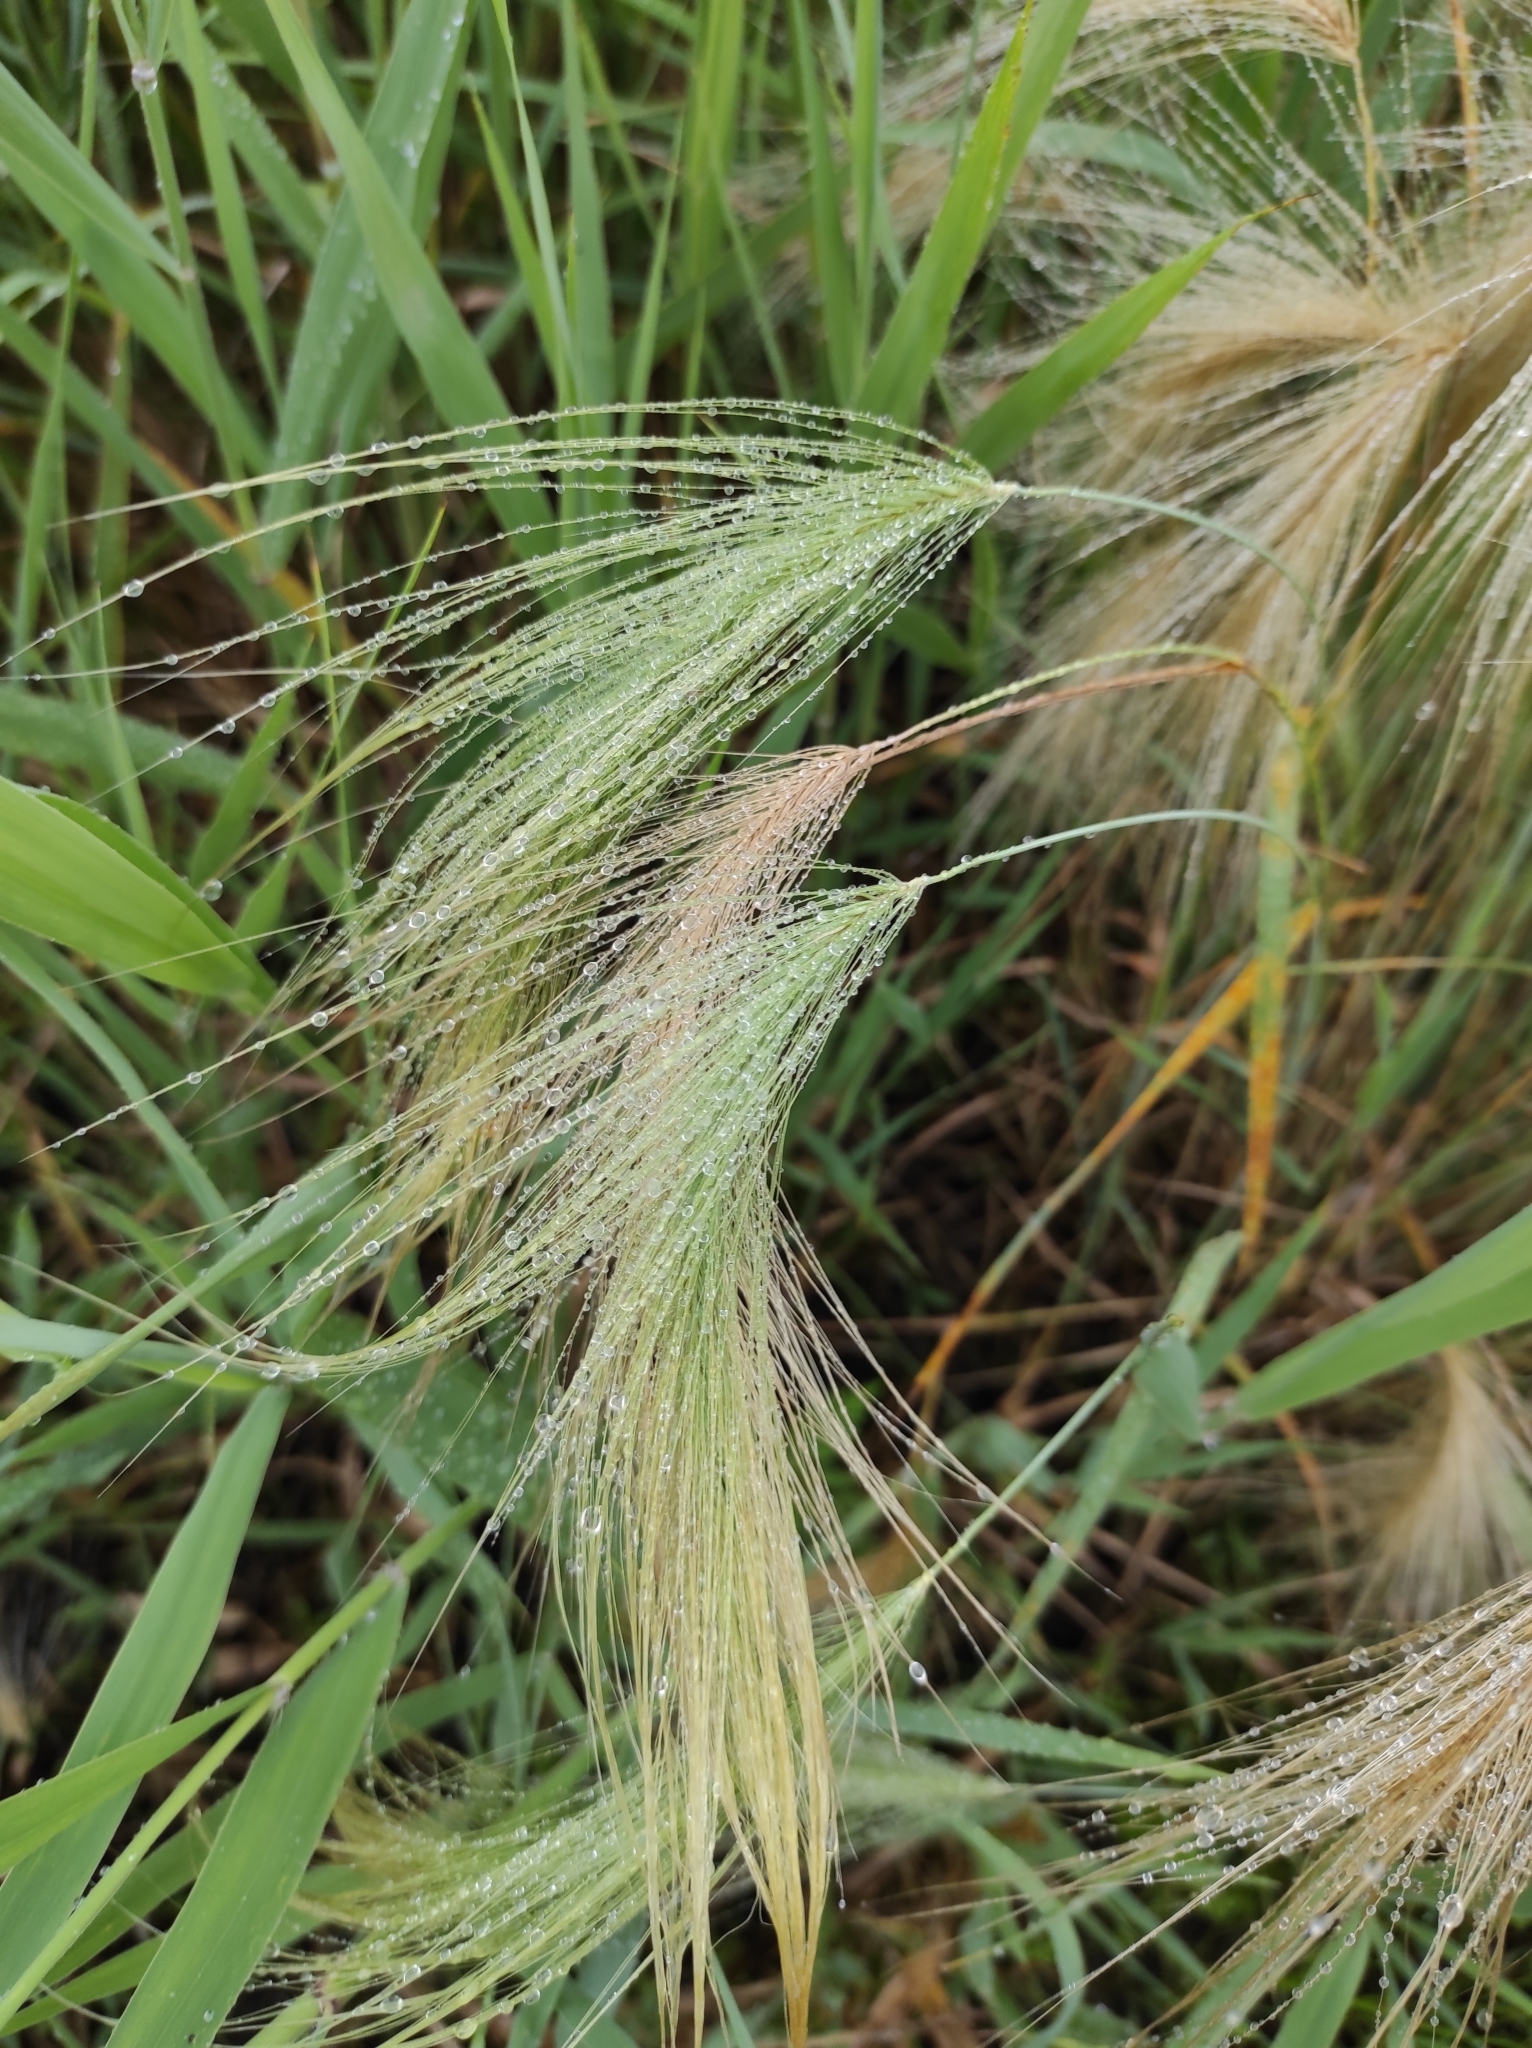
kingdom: Plantae
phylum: Tracheophyta
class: Liliopsida
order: Poales
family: Poaceae
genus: Hordeum
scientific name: Hordeum jubatum
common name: Foxtail barley
